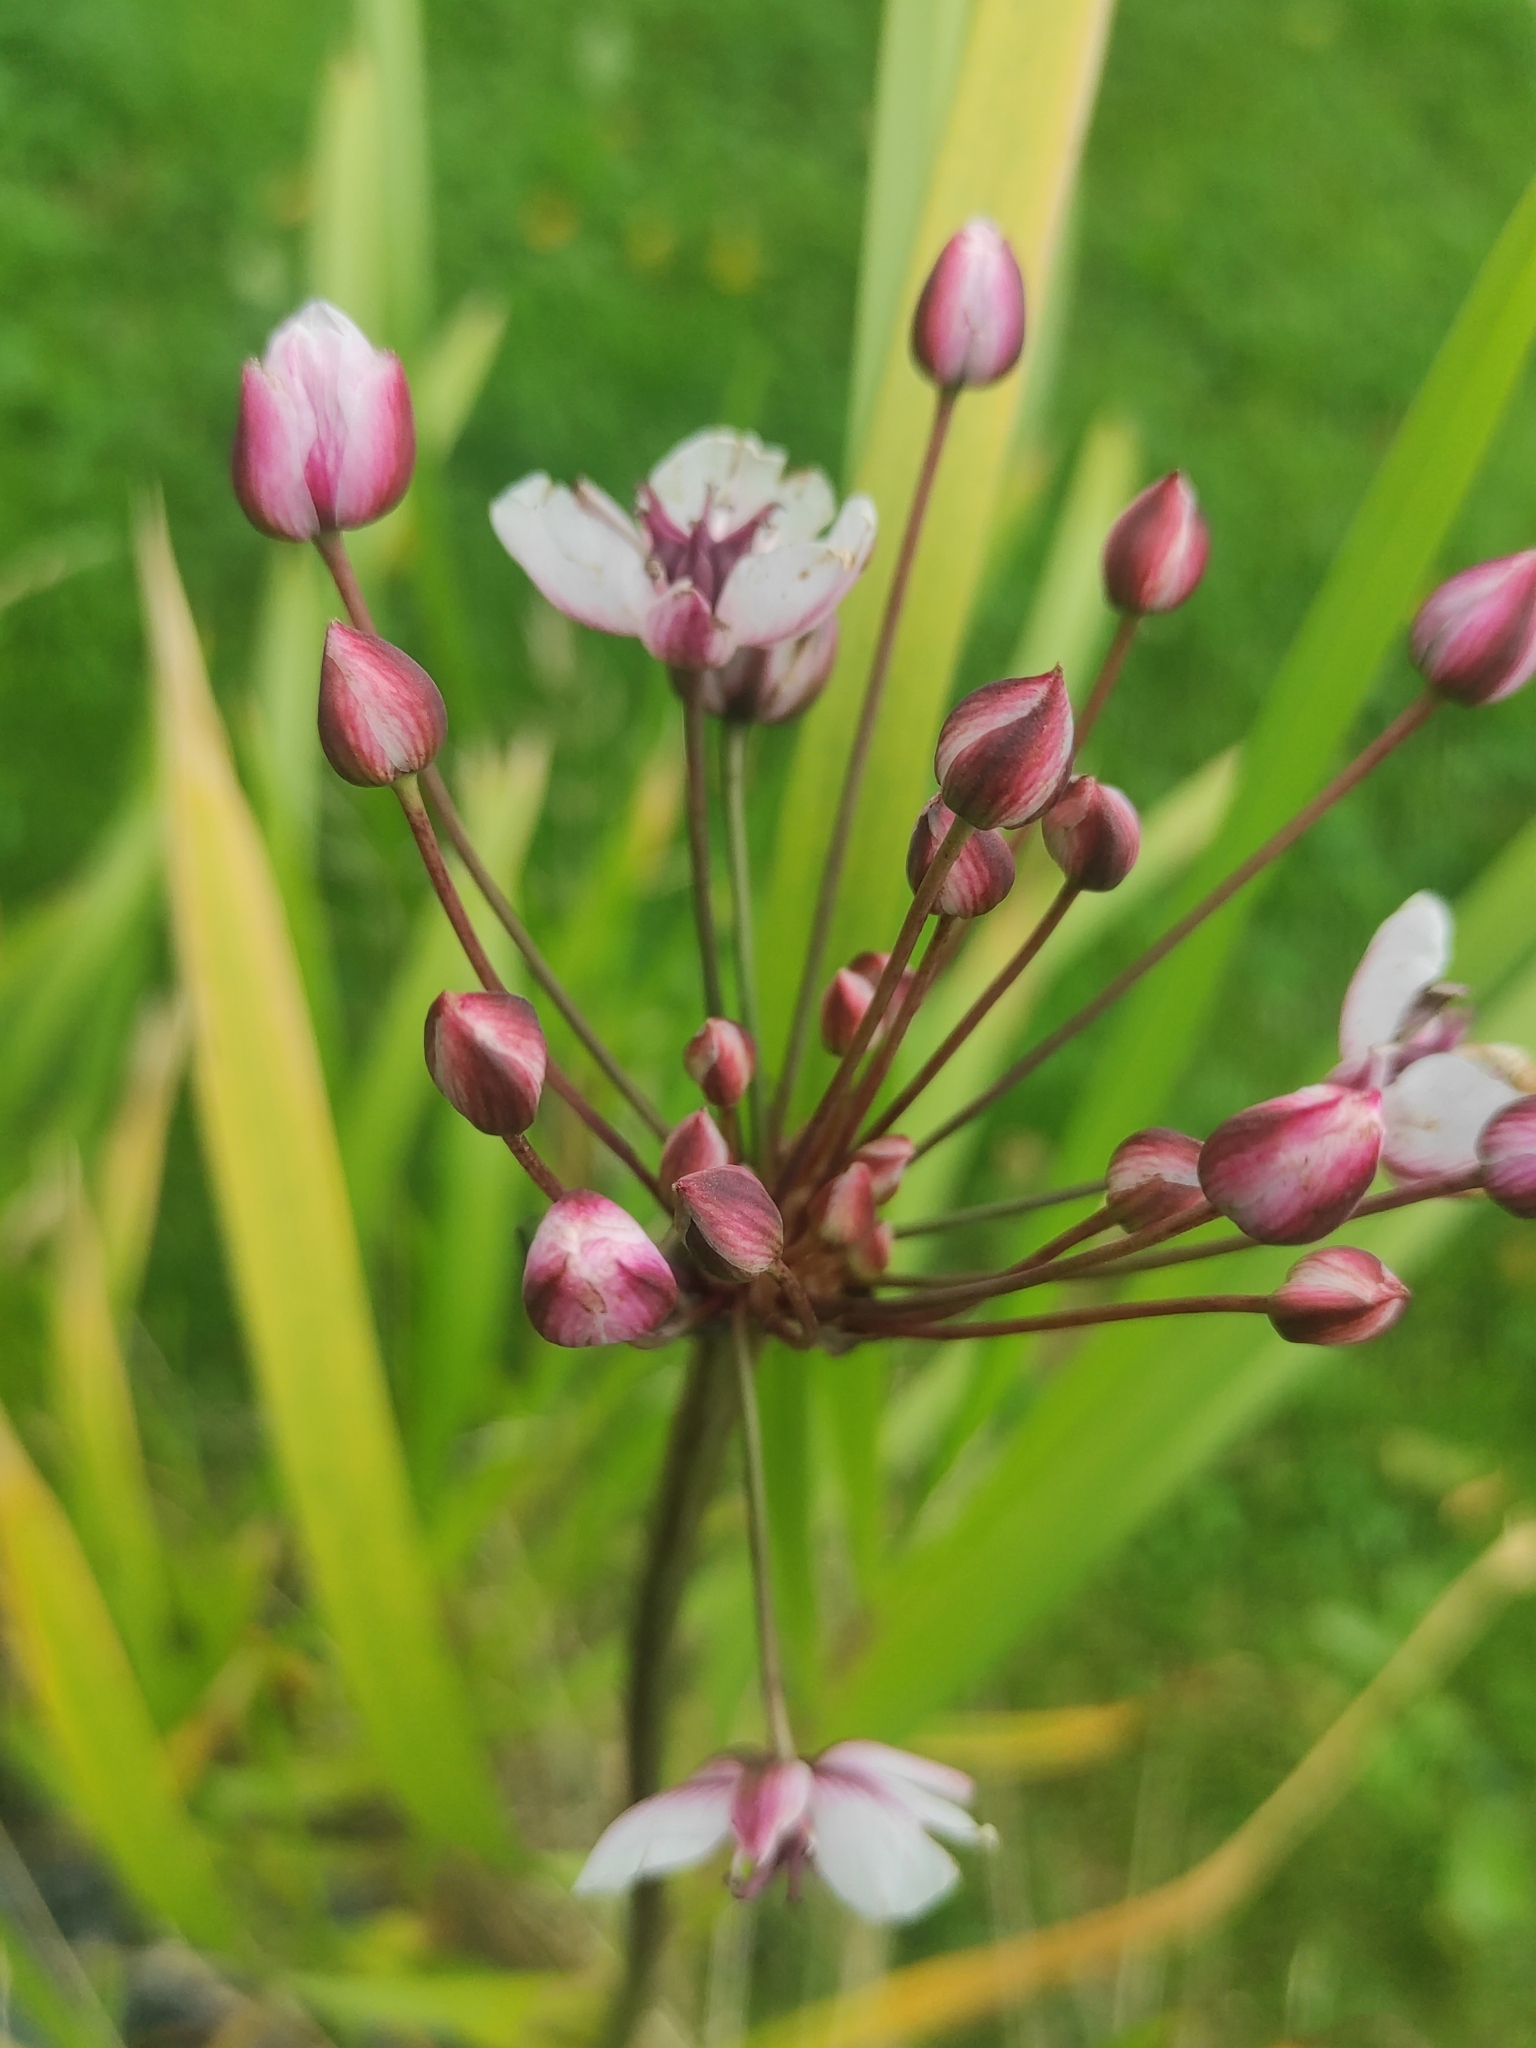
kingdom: Plantae
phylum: Tracheophyta
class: Liliopsida
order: Alismatales
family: Butomaceae
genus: Butomus
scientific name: Butomus umbellatus
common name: Flowering-rush
